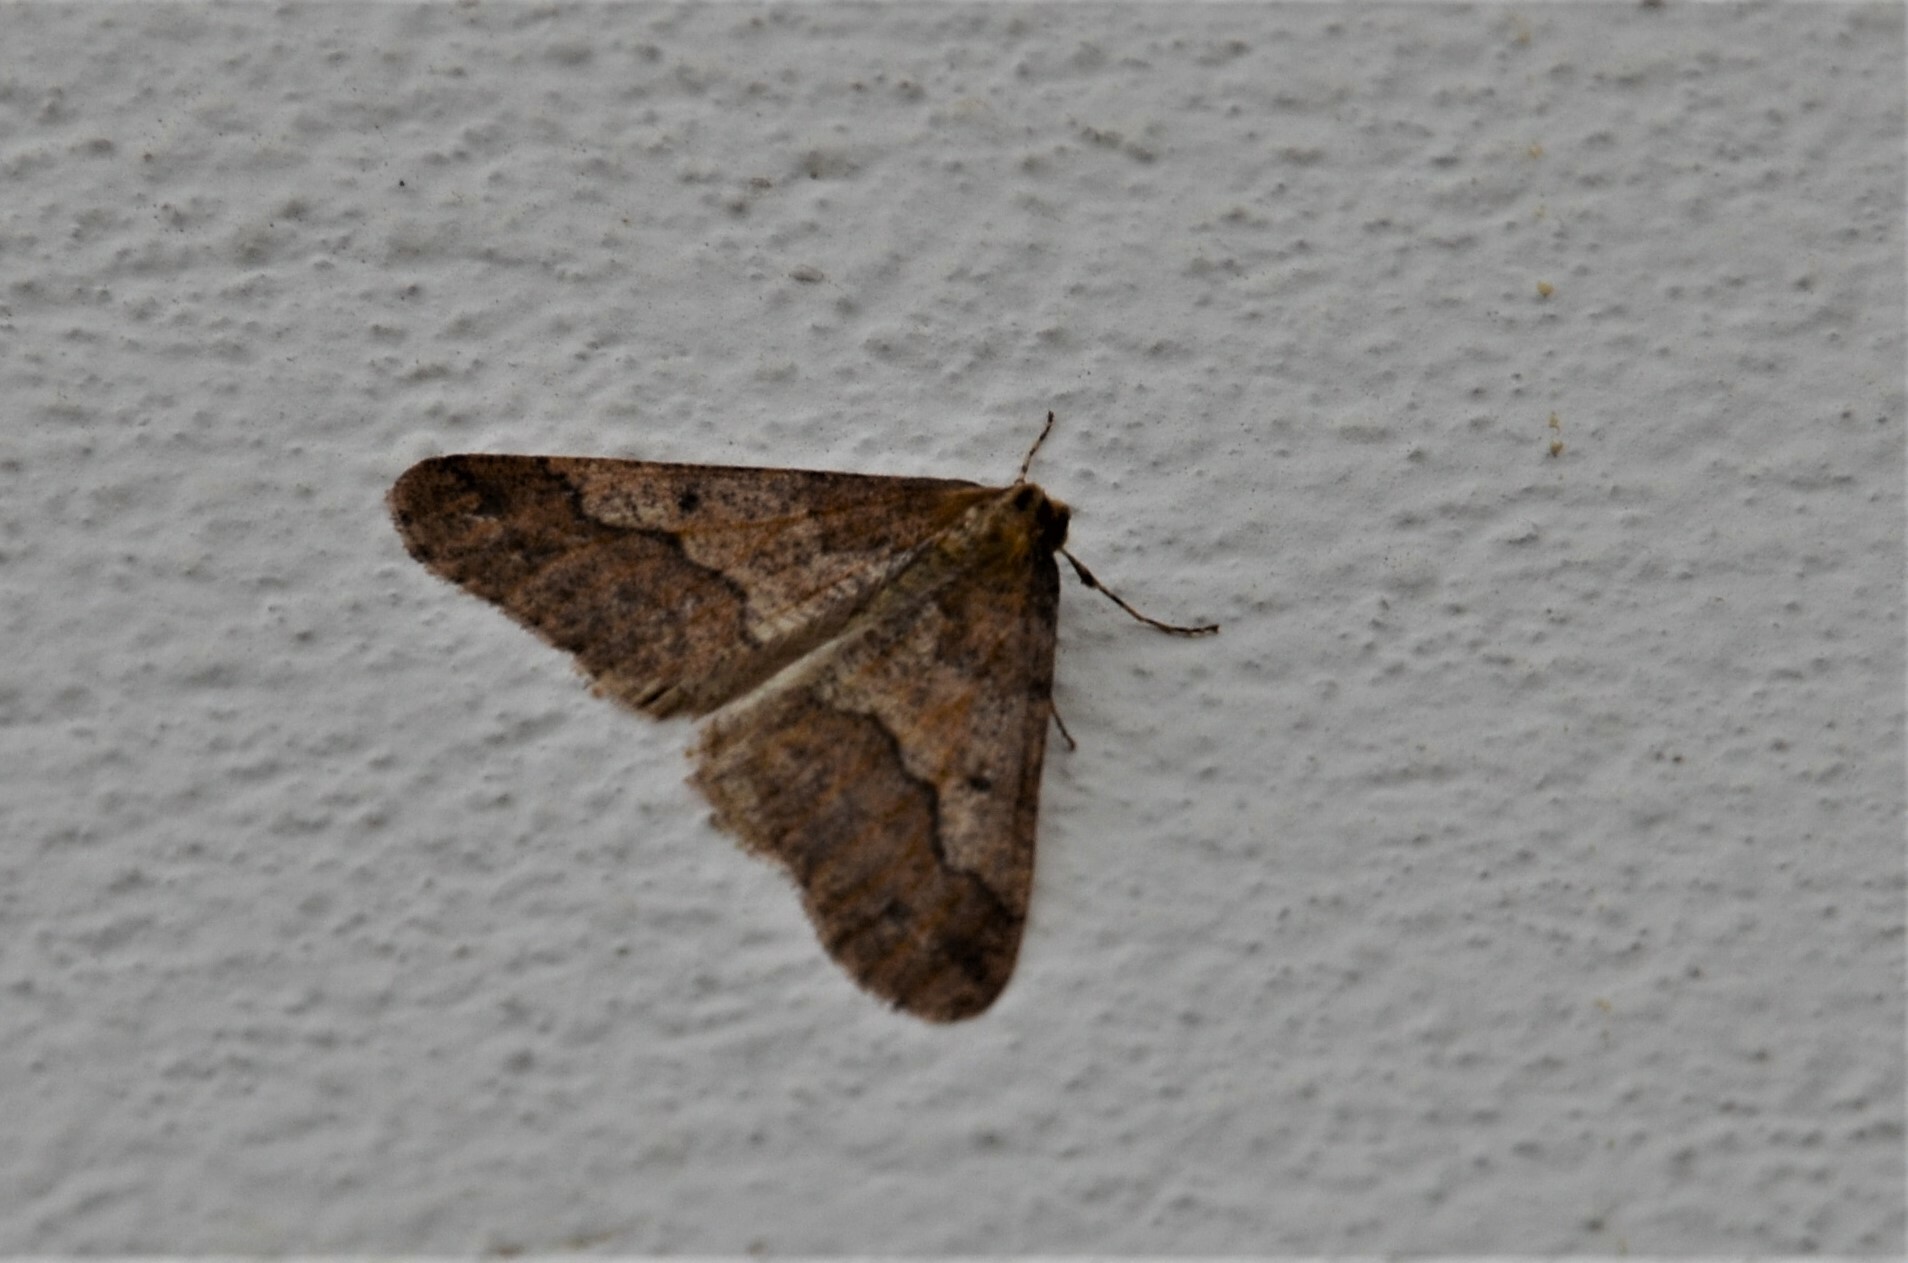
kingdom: Animalia
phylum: Arthropoda
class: Insecta
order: Lepidoptera
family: Geometridae
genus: Erannis
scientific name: Erannis defoliaria
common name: Mottled umber
